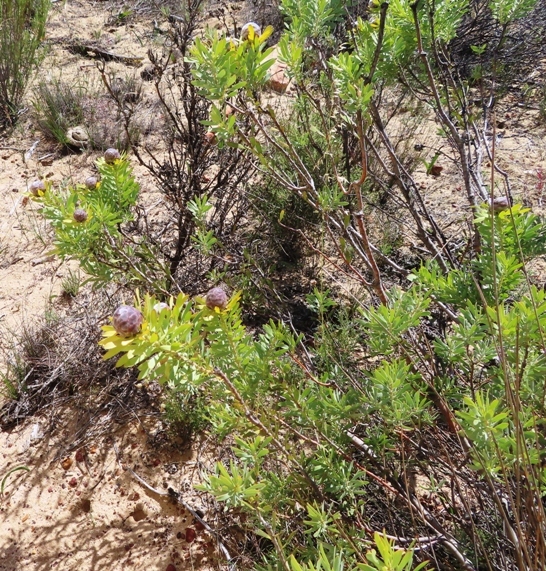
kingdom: Plantae
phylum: Tracheophyta
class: Magnoliopsida
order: Proteales
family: Proteaceae
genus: Leucadendron
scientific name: Leucadendron pubescens
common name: Grey conebush
